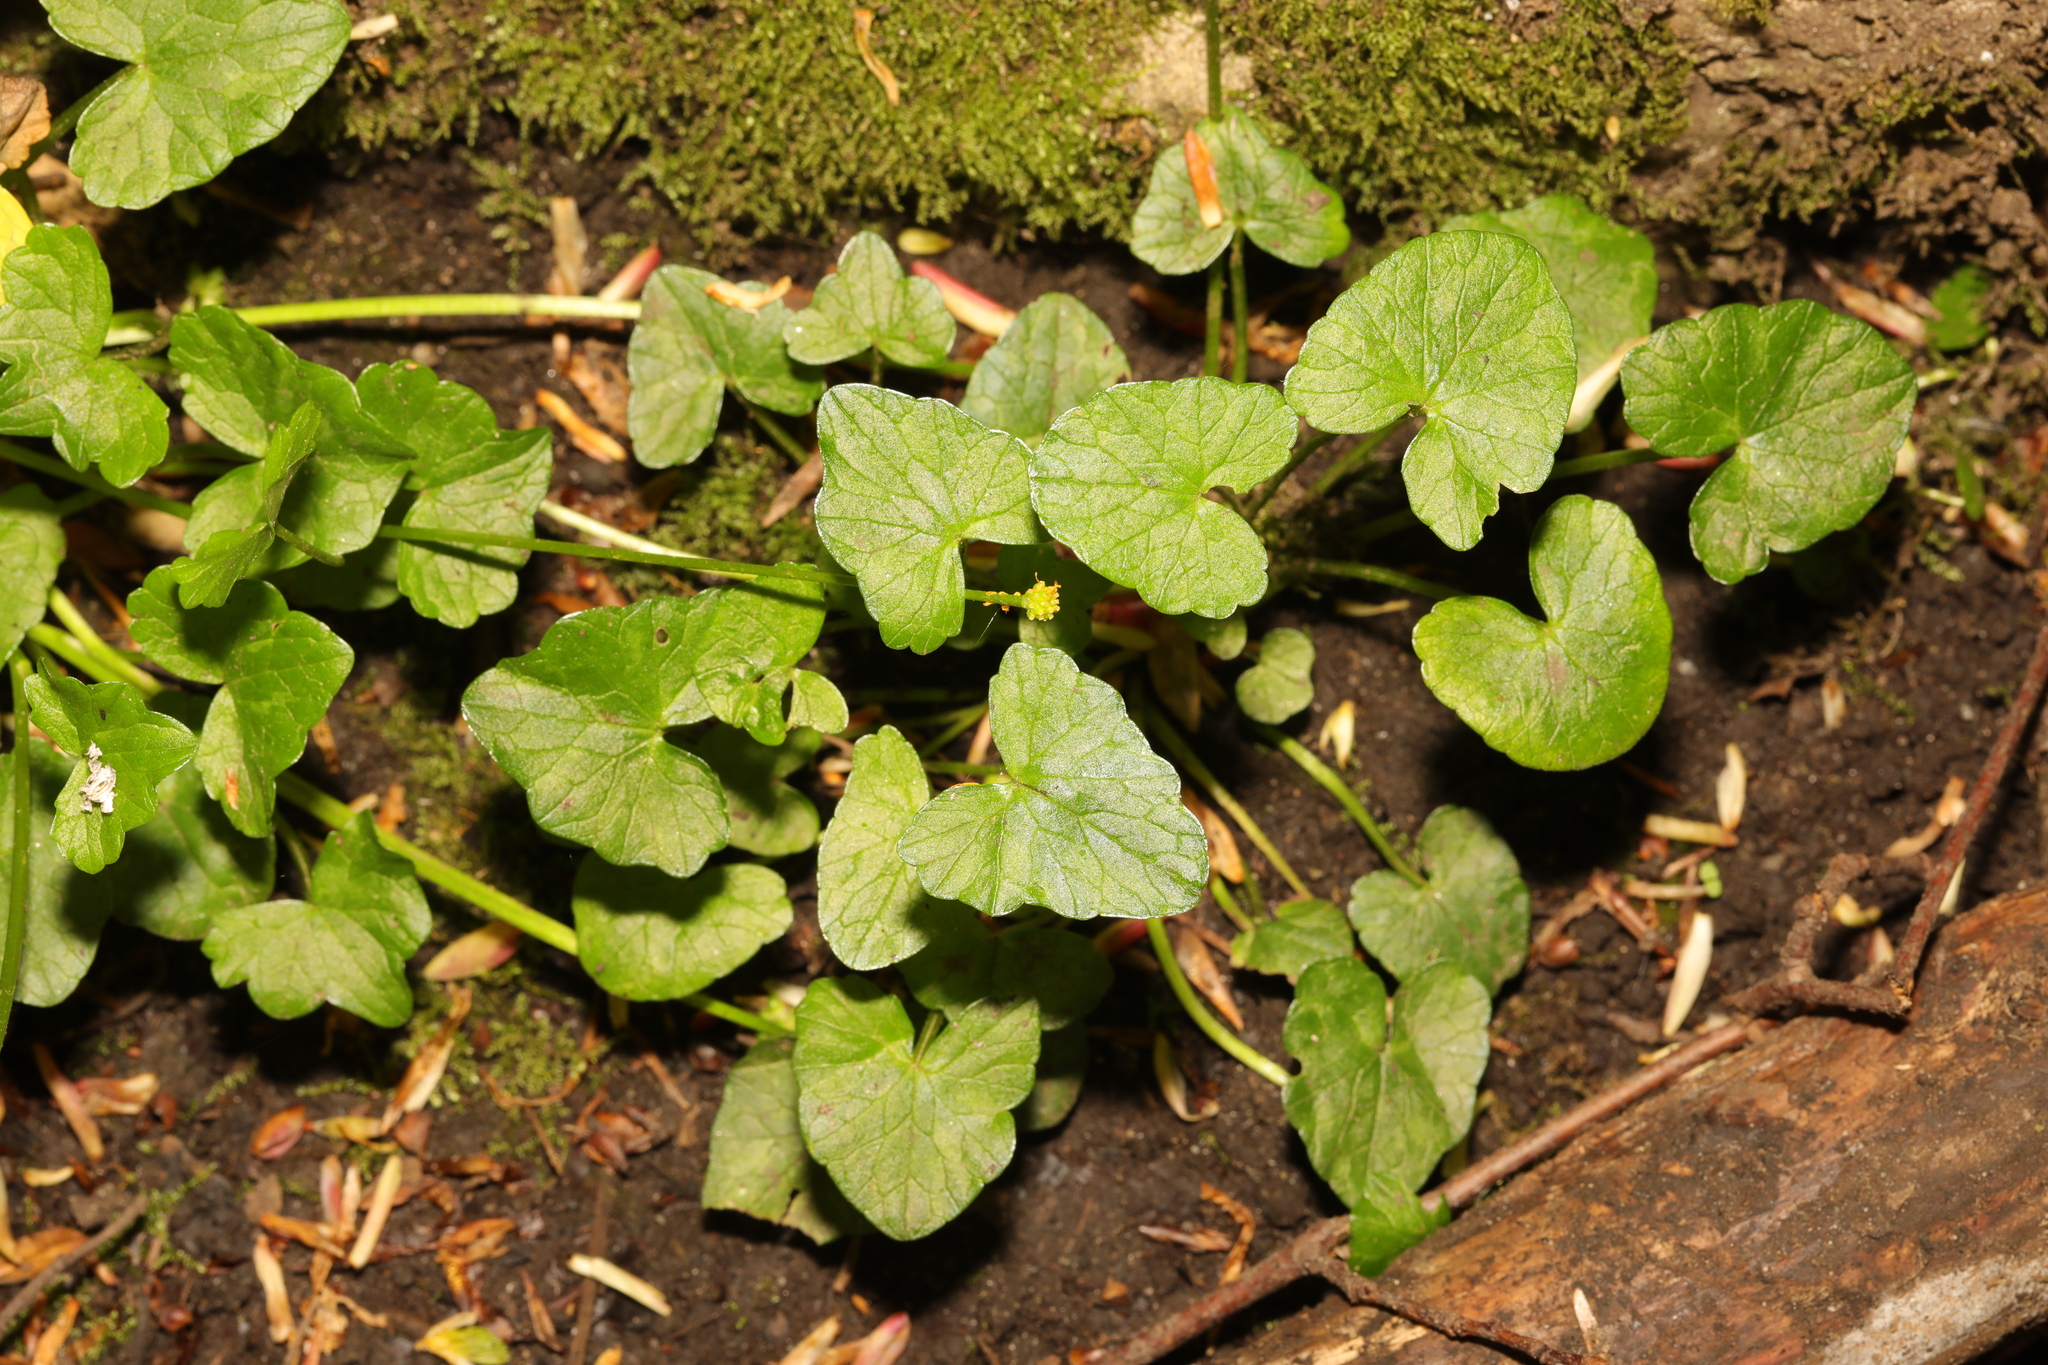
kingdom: Plantae
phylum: Tracheophyta
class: Magnoliopsida
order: Ranunculales
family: Ranunculaceae
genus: Ficaria
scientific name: Ficaria verna
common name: Lesser celandine
